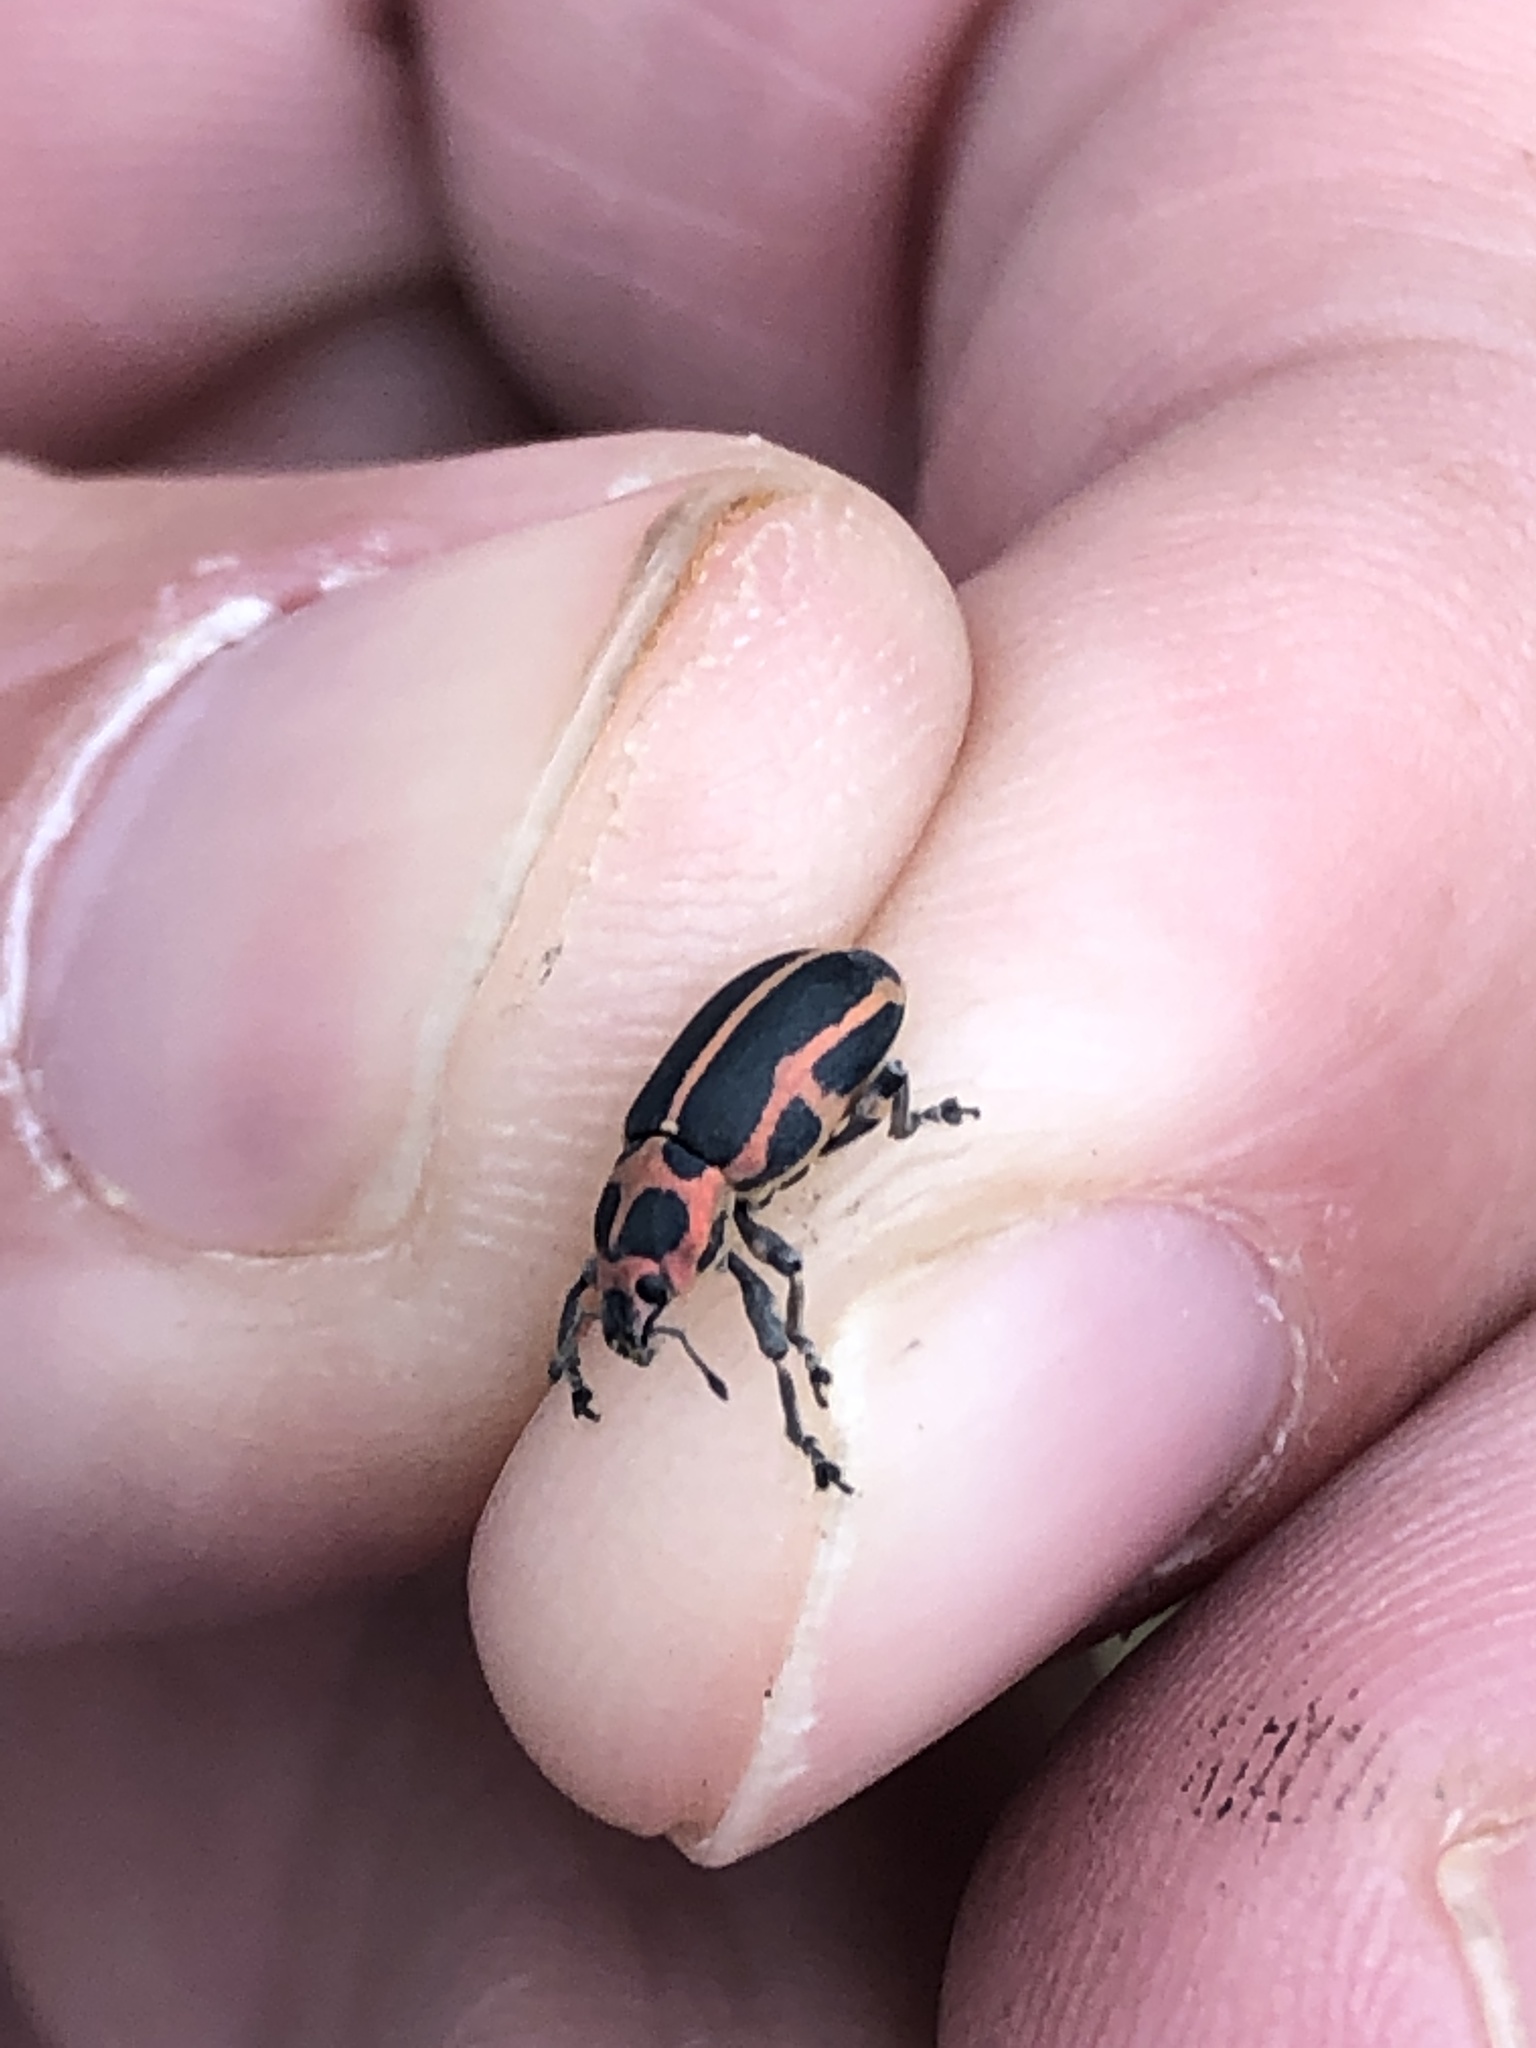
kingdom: Animalia
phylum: Arthropoda
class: Insecta
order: Coleoptera
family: Curculionidae
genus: Eudiagogus
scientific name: Eudiagogus pulcher
